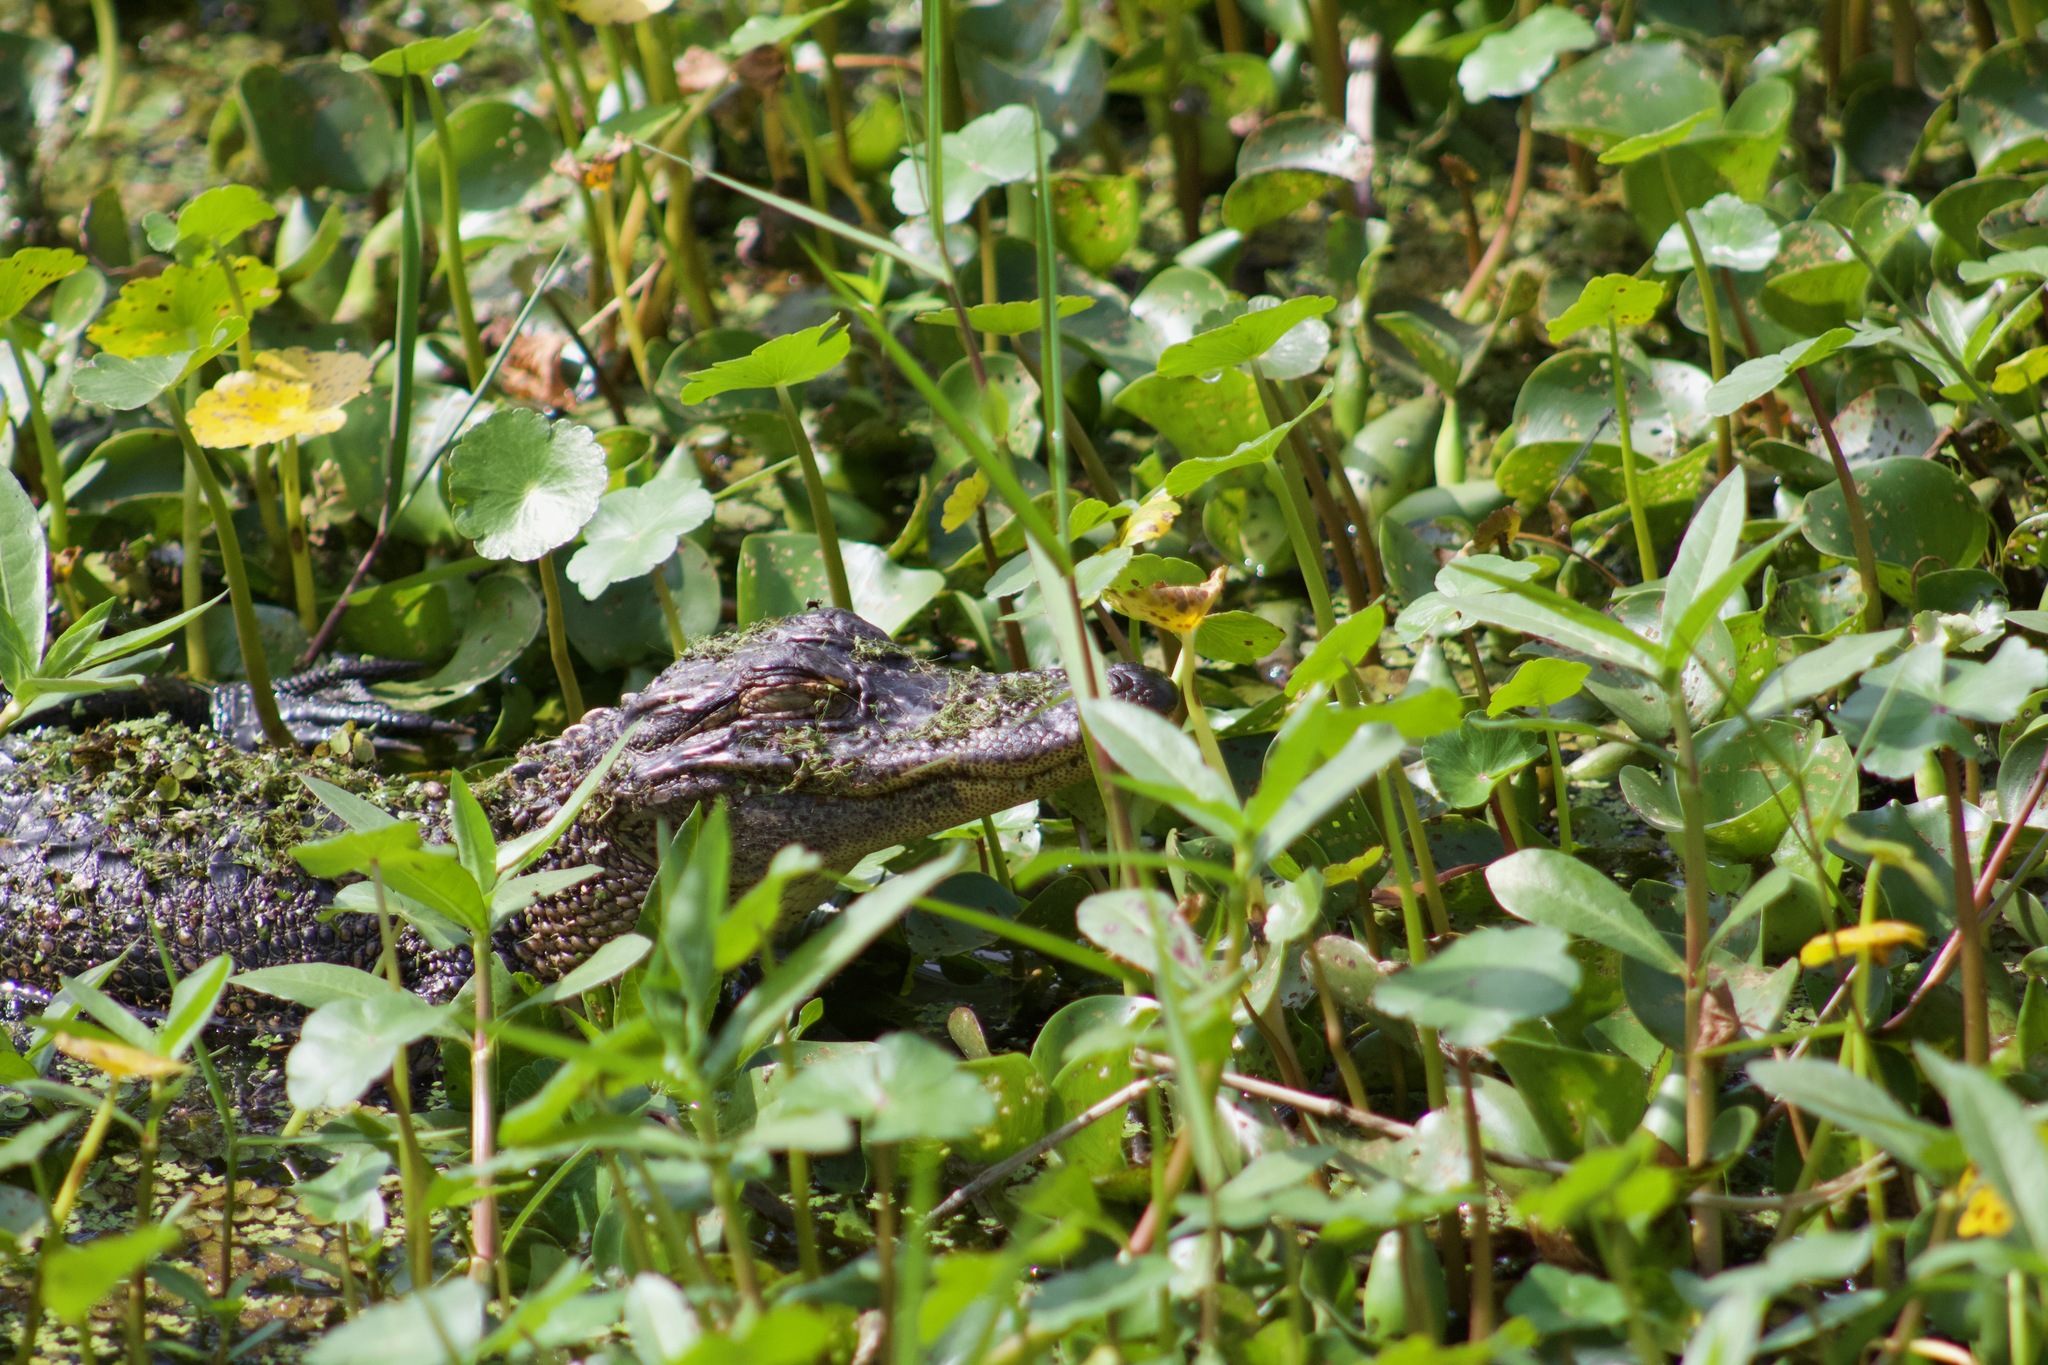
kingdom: Animalia
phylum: Chordata
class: Crocodylia
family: Alligatoridae
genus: Alligator
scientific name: Alligator mississippiensis
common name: American alligator
